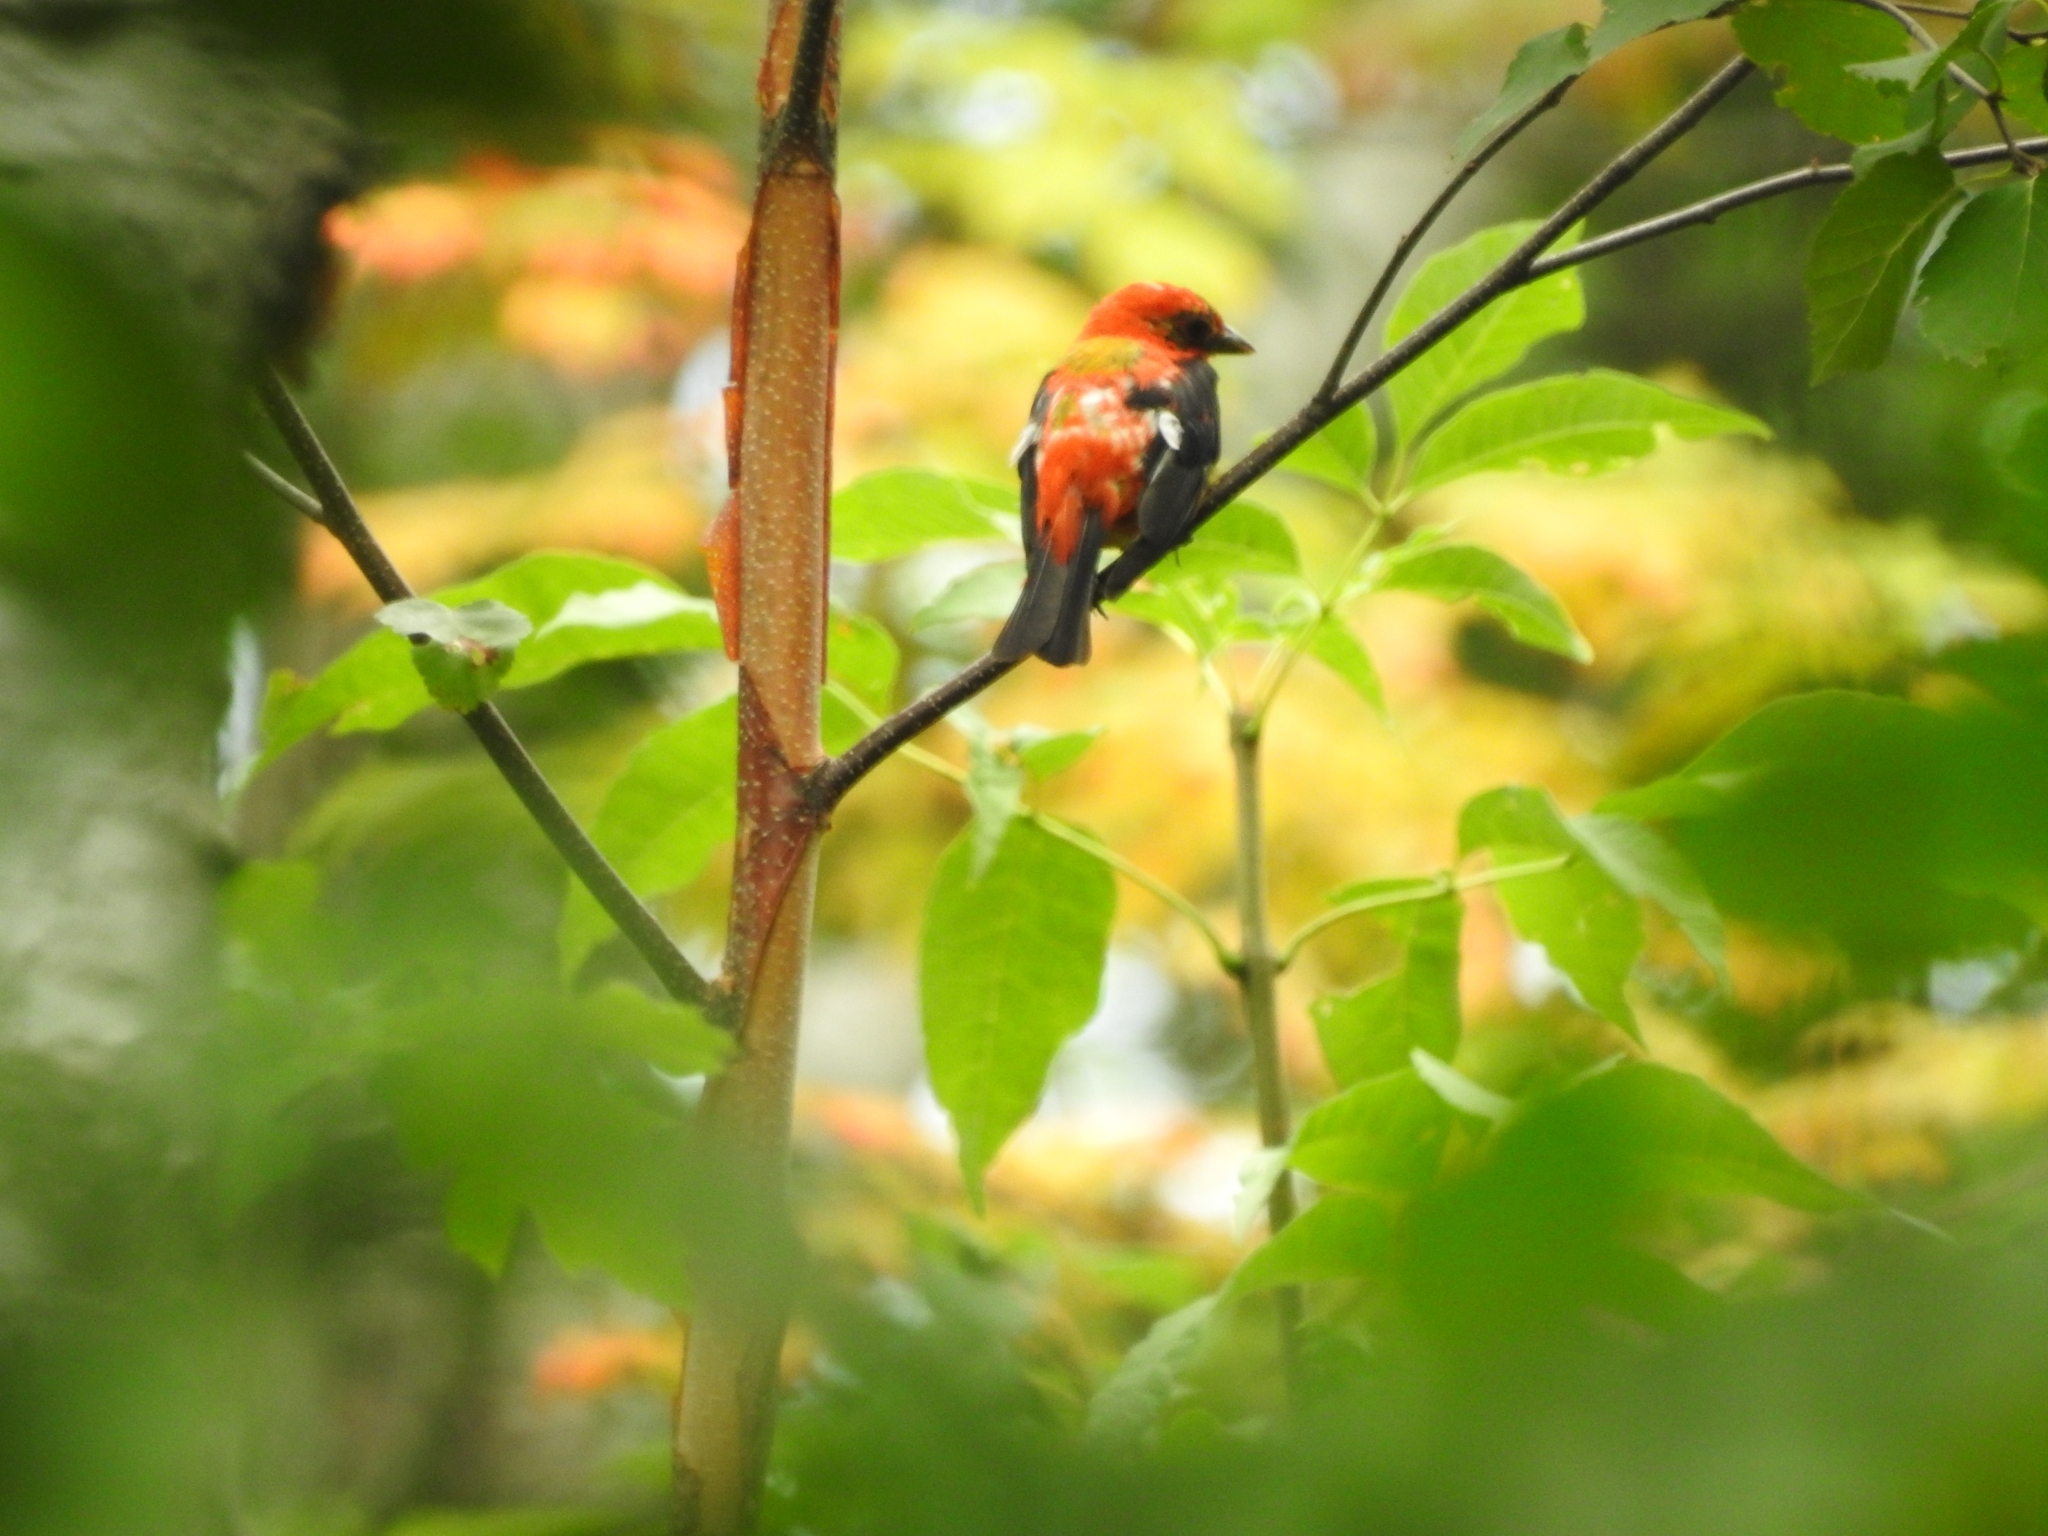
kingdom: Animalia
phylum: Chordata
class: Aves
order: Passeriformes
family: Cardinalidae
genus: Piranga
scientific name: Piranga olivacea
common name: Scarlet tanager
